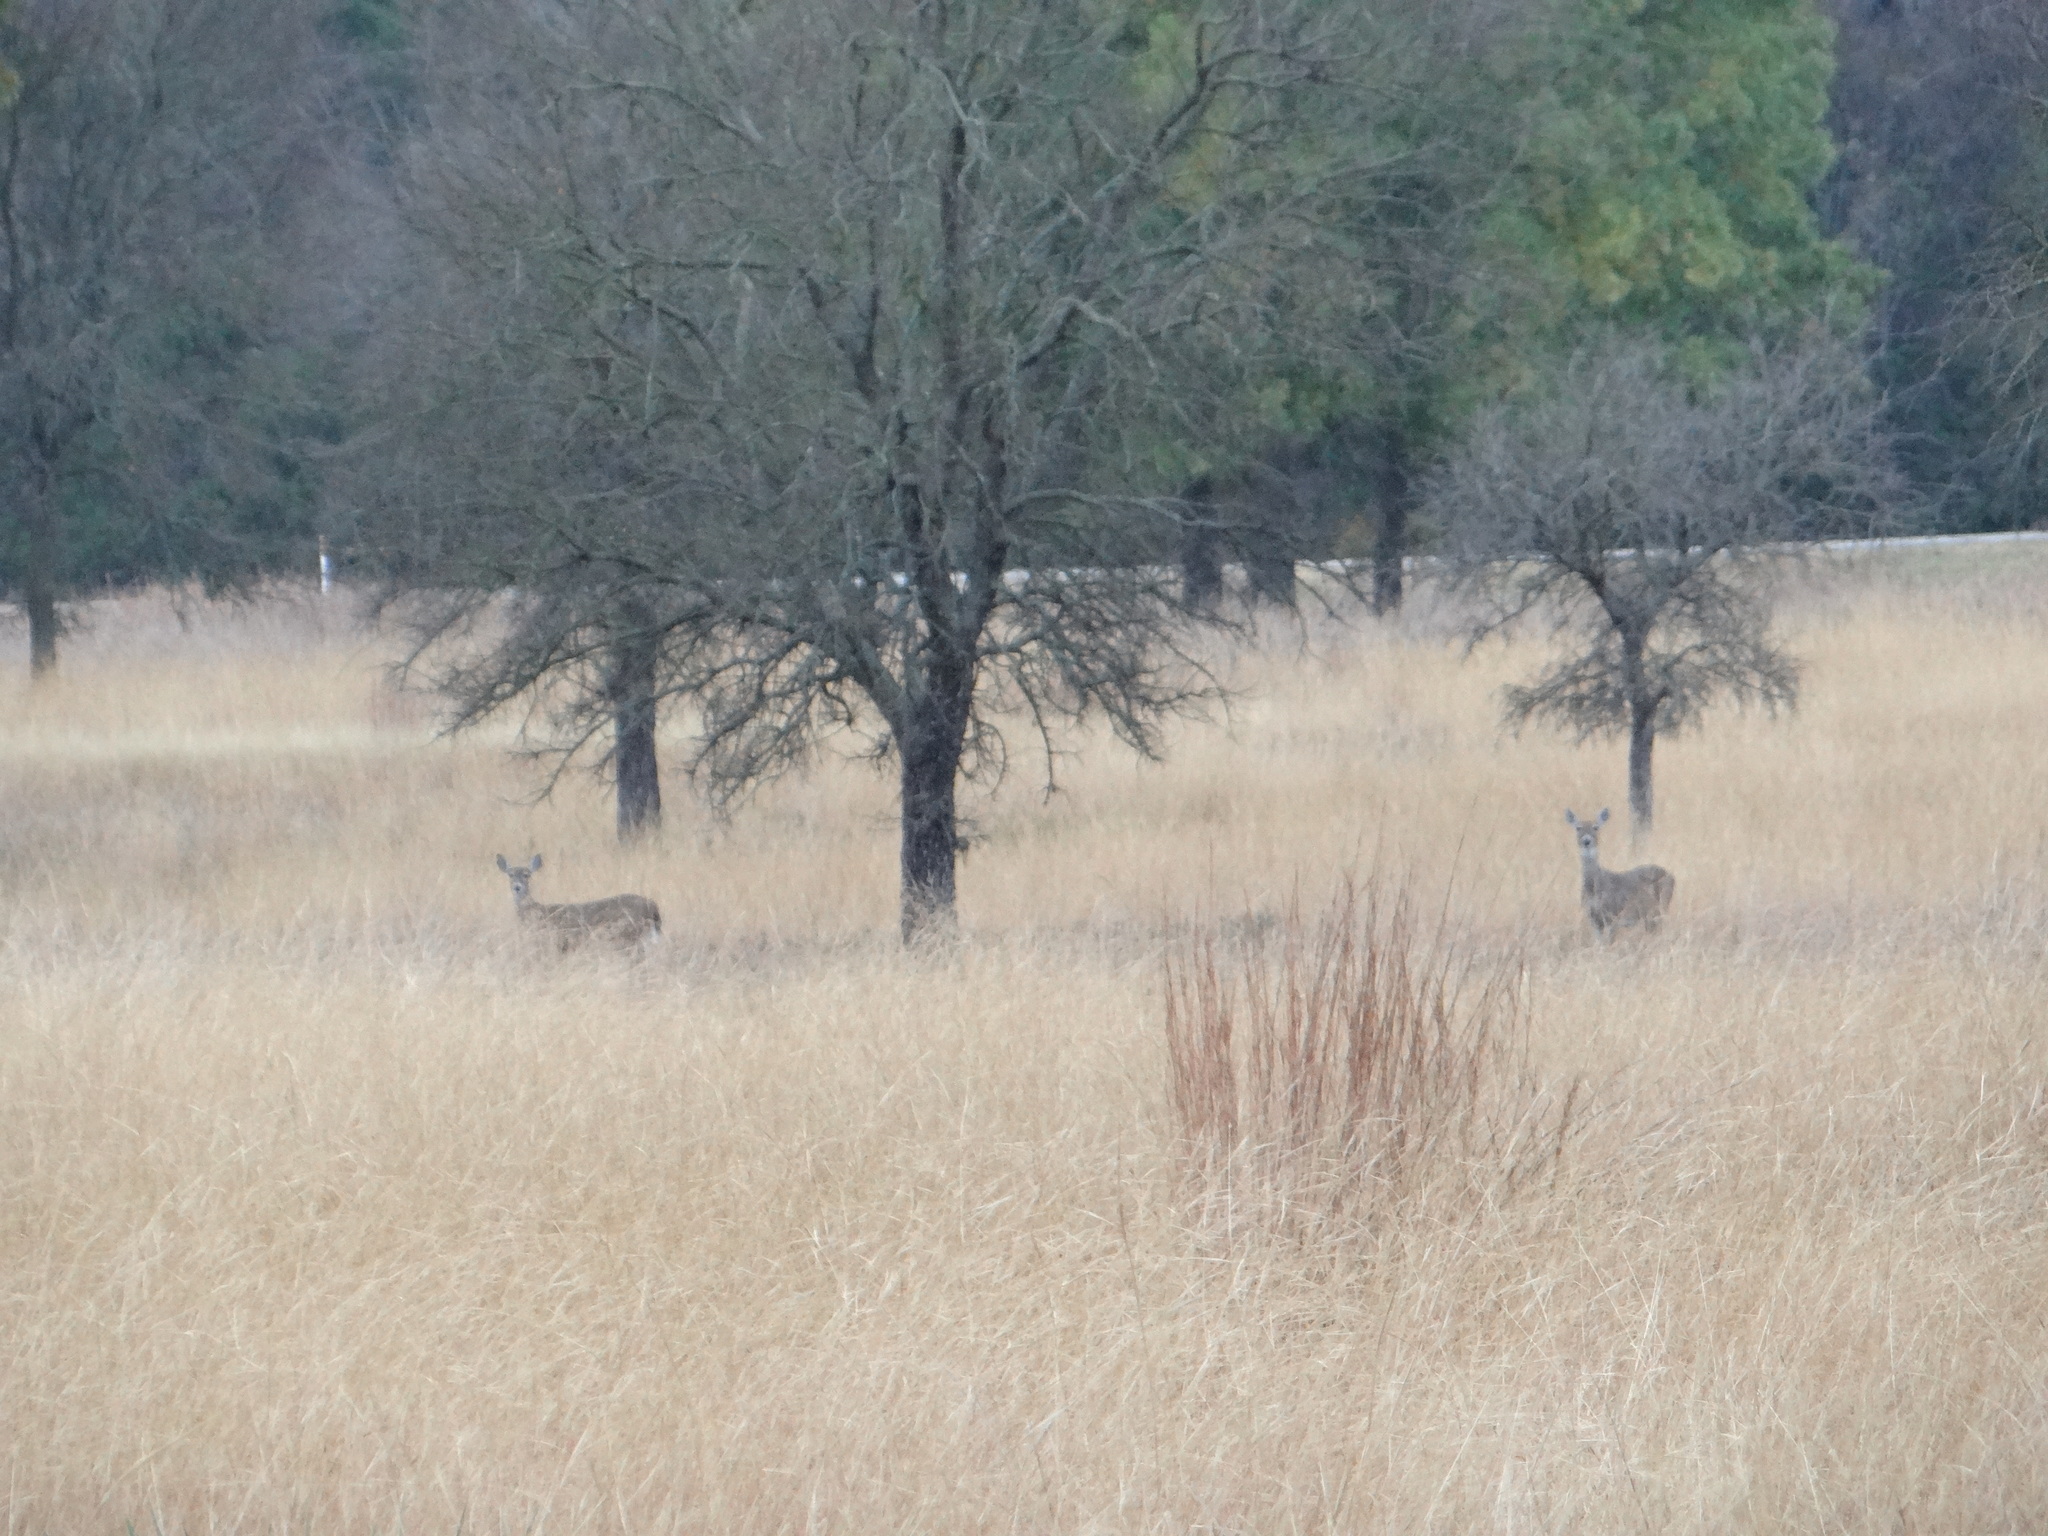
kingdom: Animalia
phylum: Chordata
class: Mammalia
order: Artiodactyla
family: Cervidae
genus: Odocoileus
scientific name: Odocoileus virginianus
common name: White-tailed deer
